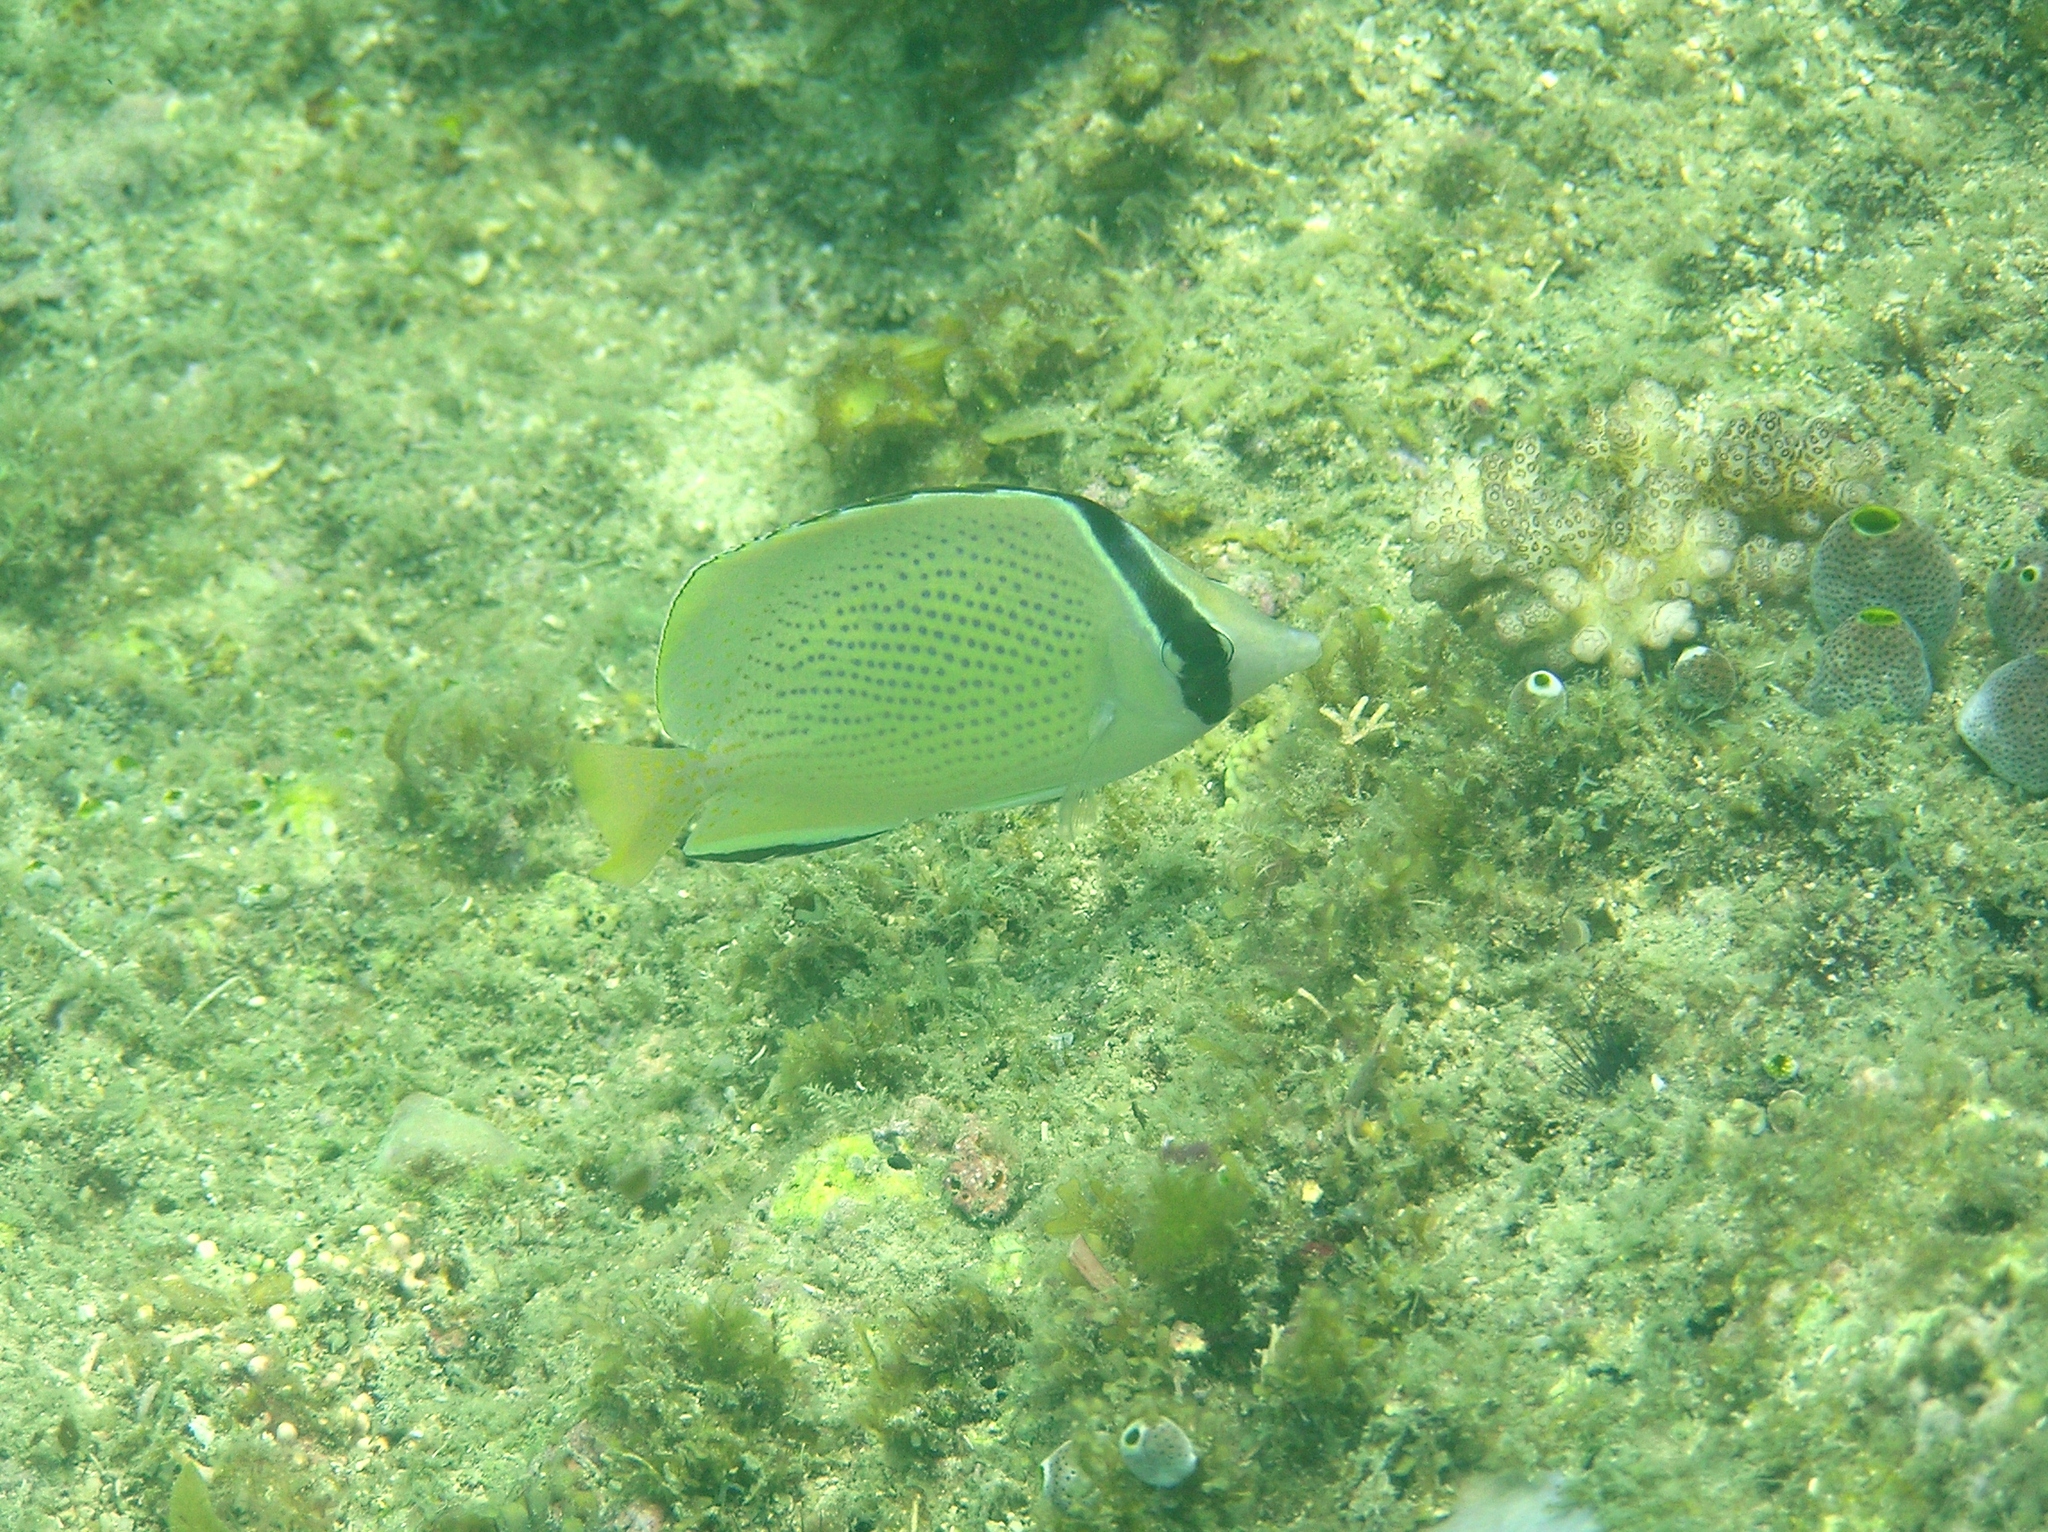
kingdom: Animalia
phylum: Chordata
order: Perciformes
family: Chaetodontidae
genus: Chaetodon
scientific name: Chaetodon citrinellus
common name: Speckled butterflyfish
